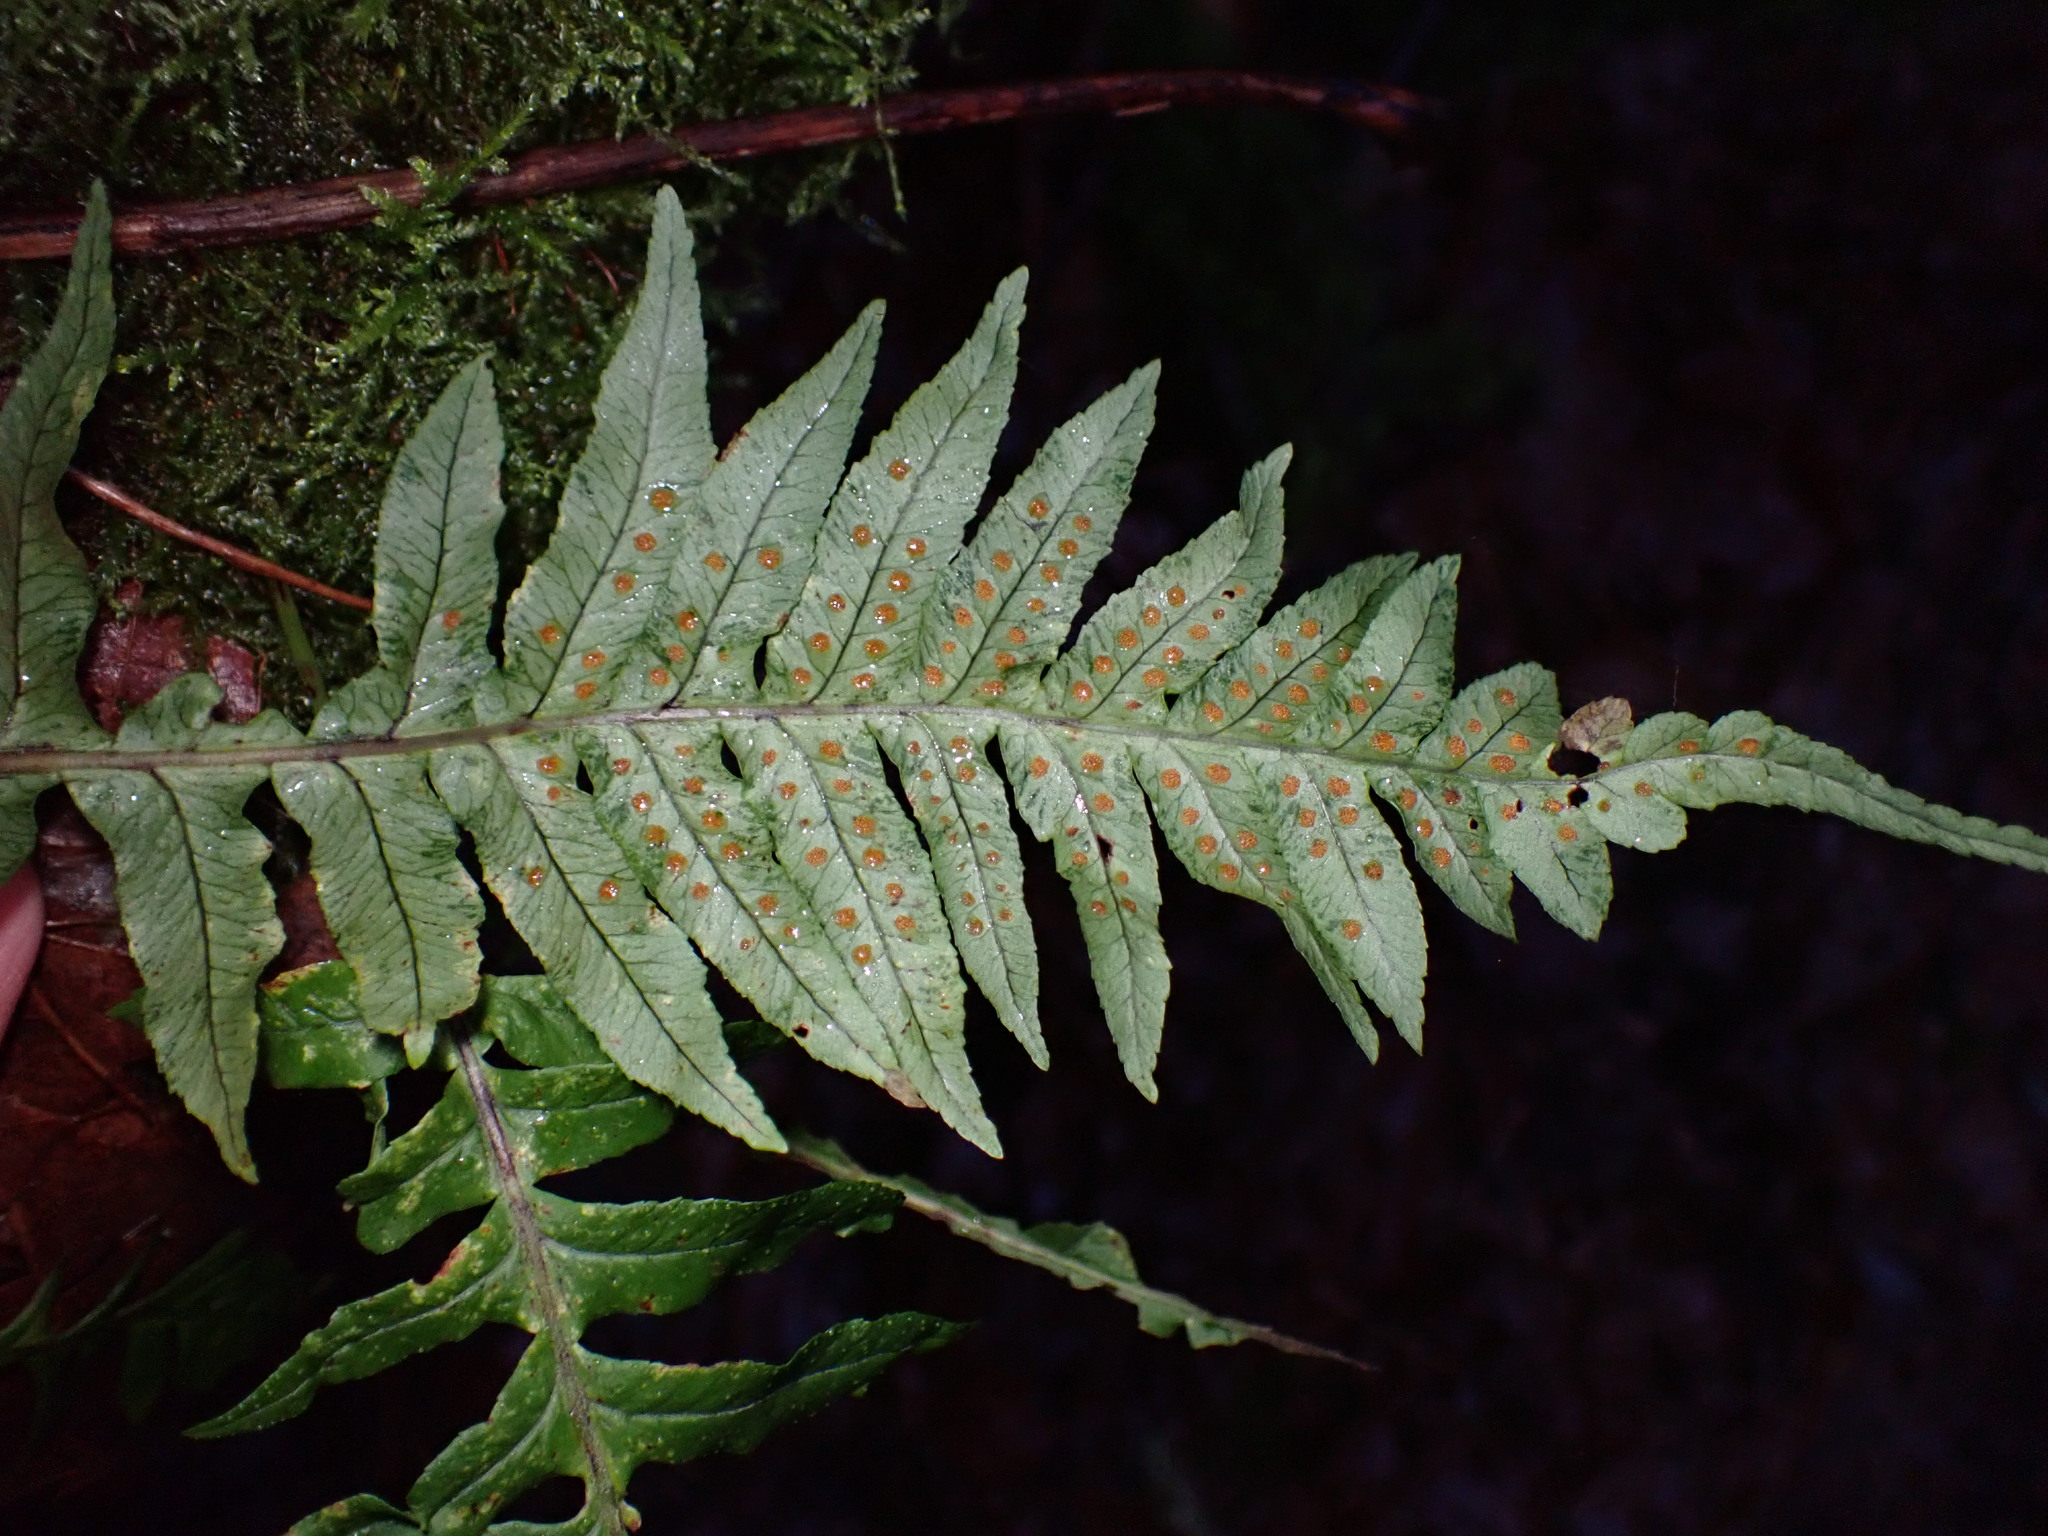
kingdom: Plantae
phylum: Tracheophyta
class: Polypodiopsida
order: Polypodiales
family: Polypodiaceae
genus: Polypodium
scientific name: Polypodium glycyrrhiza
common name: Licorice fern
